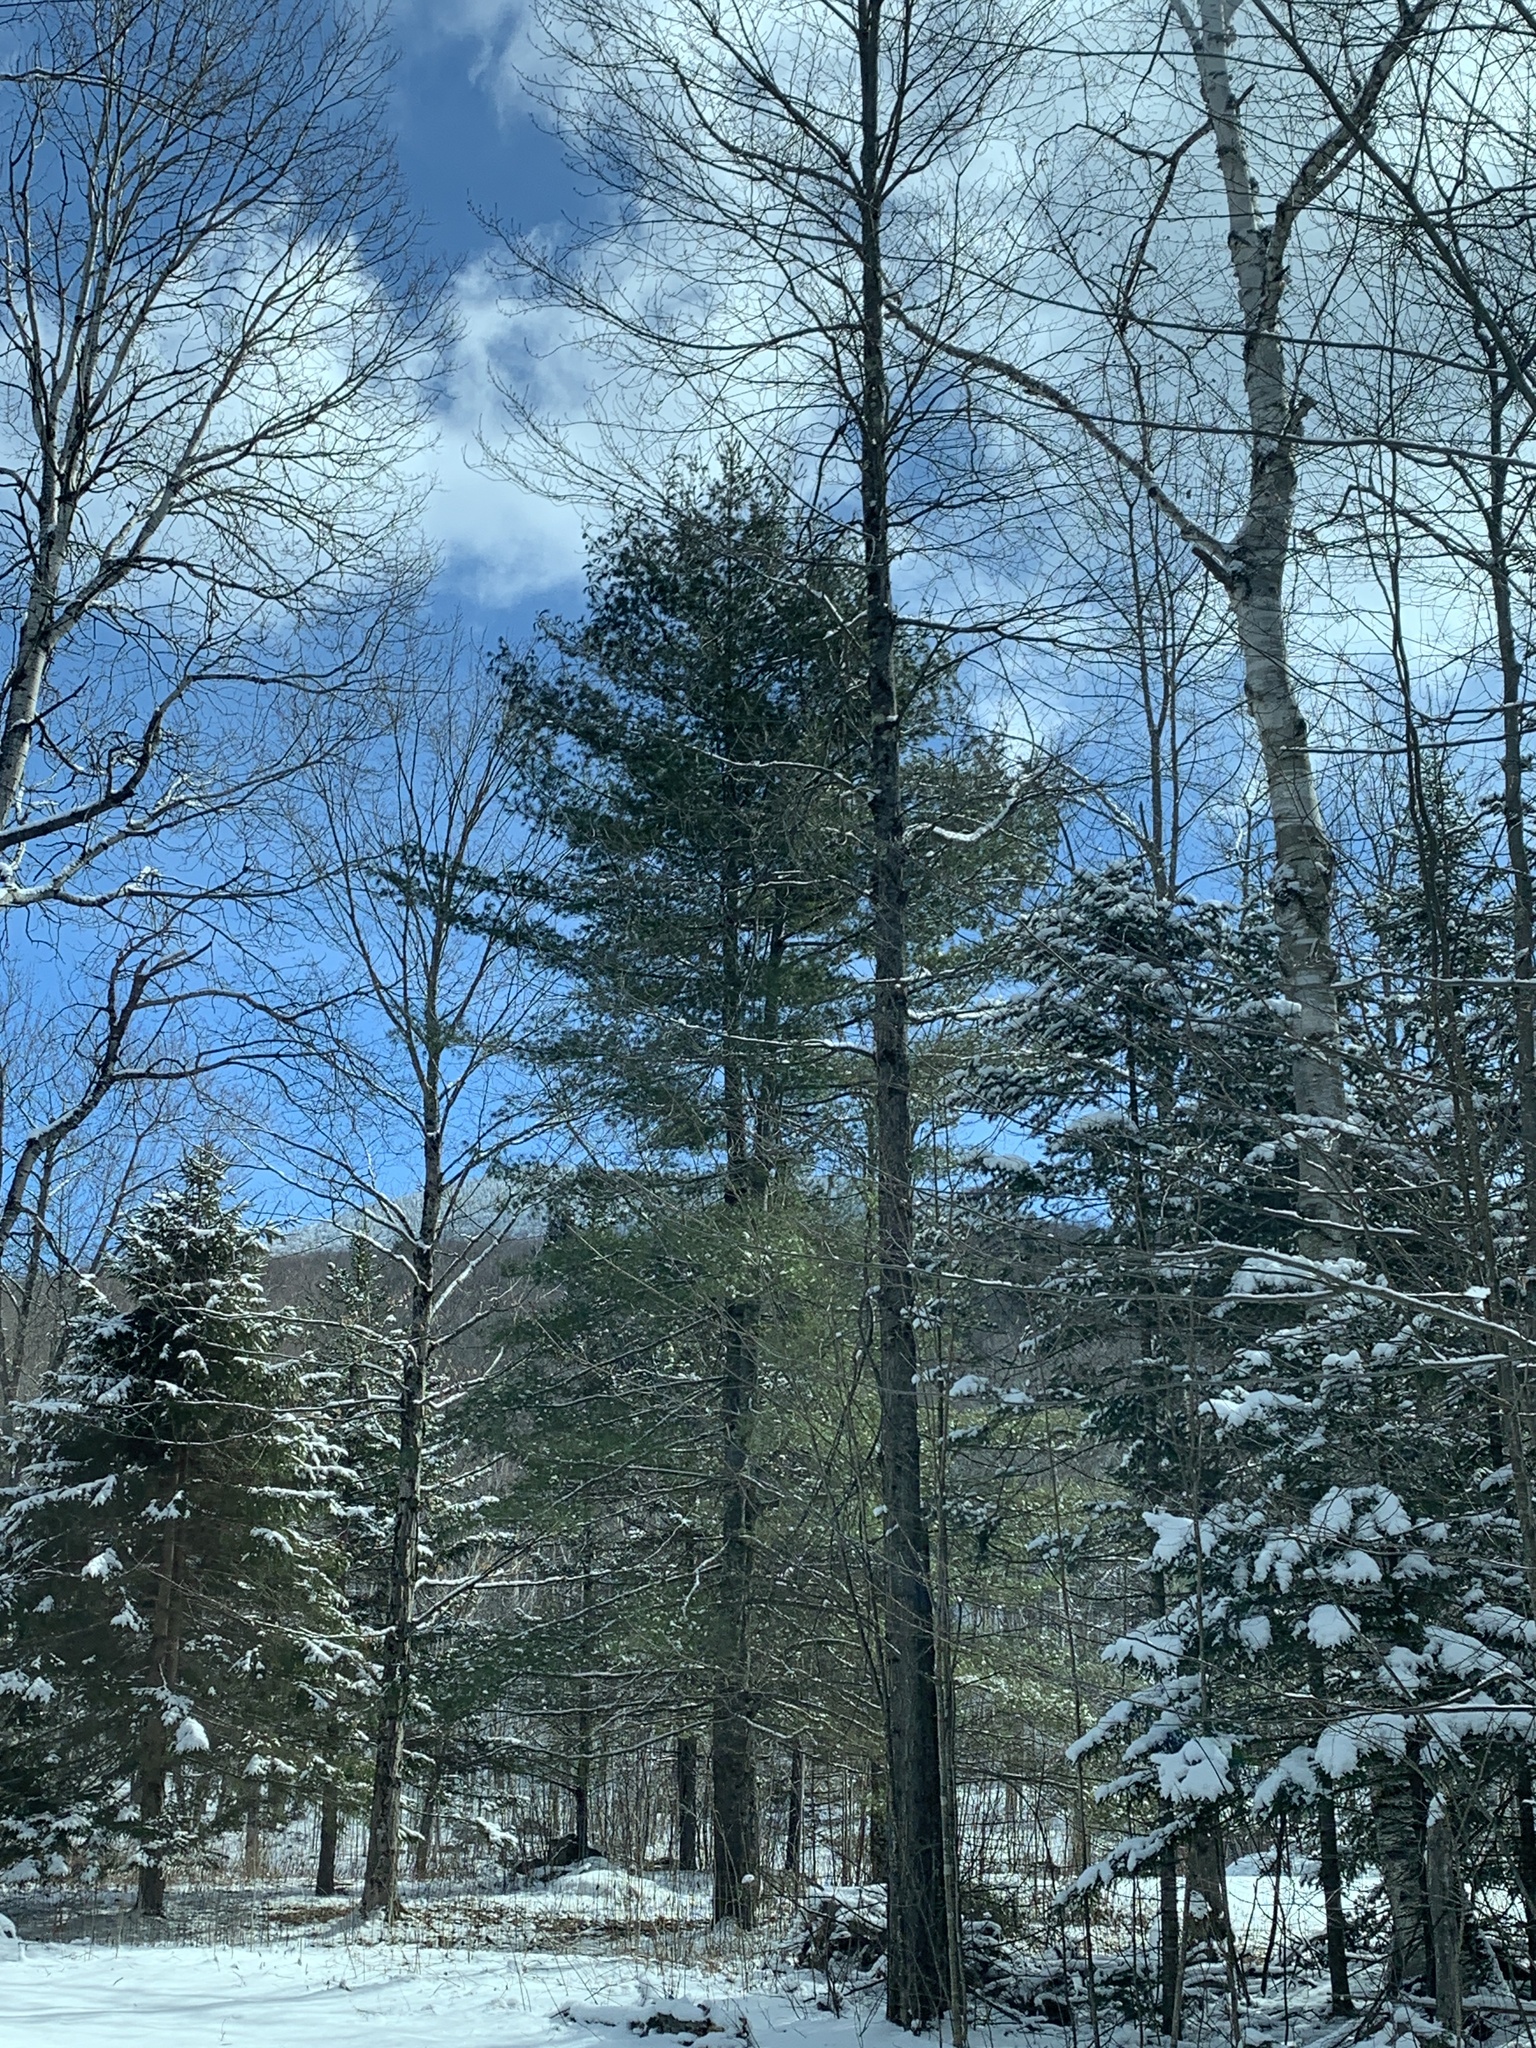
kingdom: Plantae
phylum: Tracheophyta
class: Pinopsida
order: Pinales
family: Pinaceae
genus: Pinus
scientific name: Pinus strobus
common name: Weymouth pine
